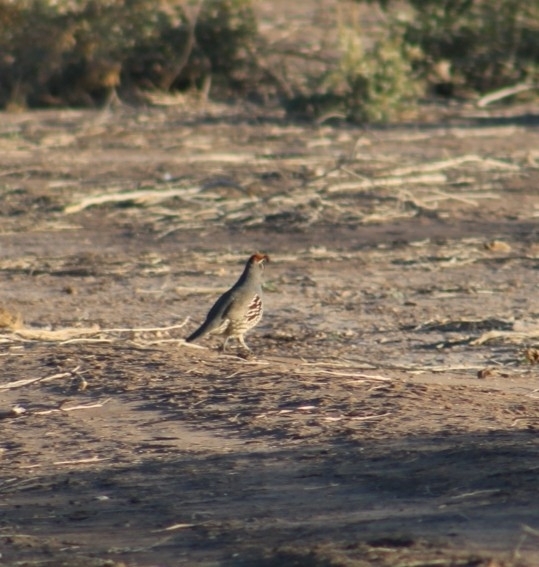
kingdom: Animalia
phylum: Chordata
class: Aves
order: Galliformes
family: Odontophoridae
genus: Callipepla
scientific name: Callipepla gambelii
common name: Gambel's quail
